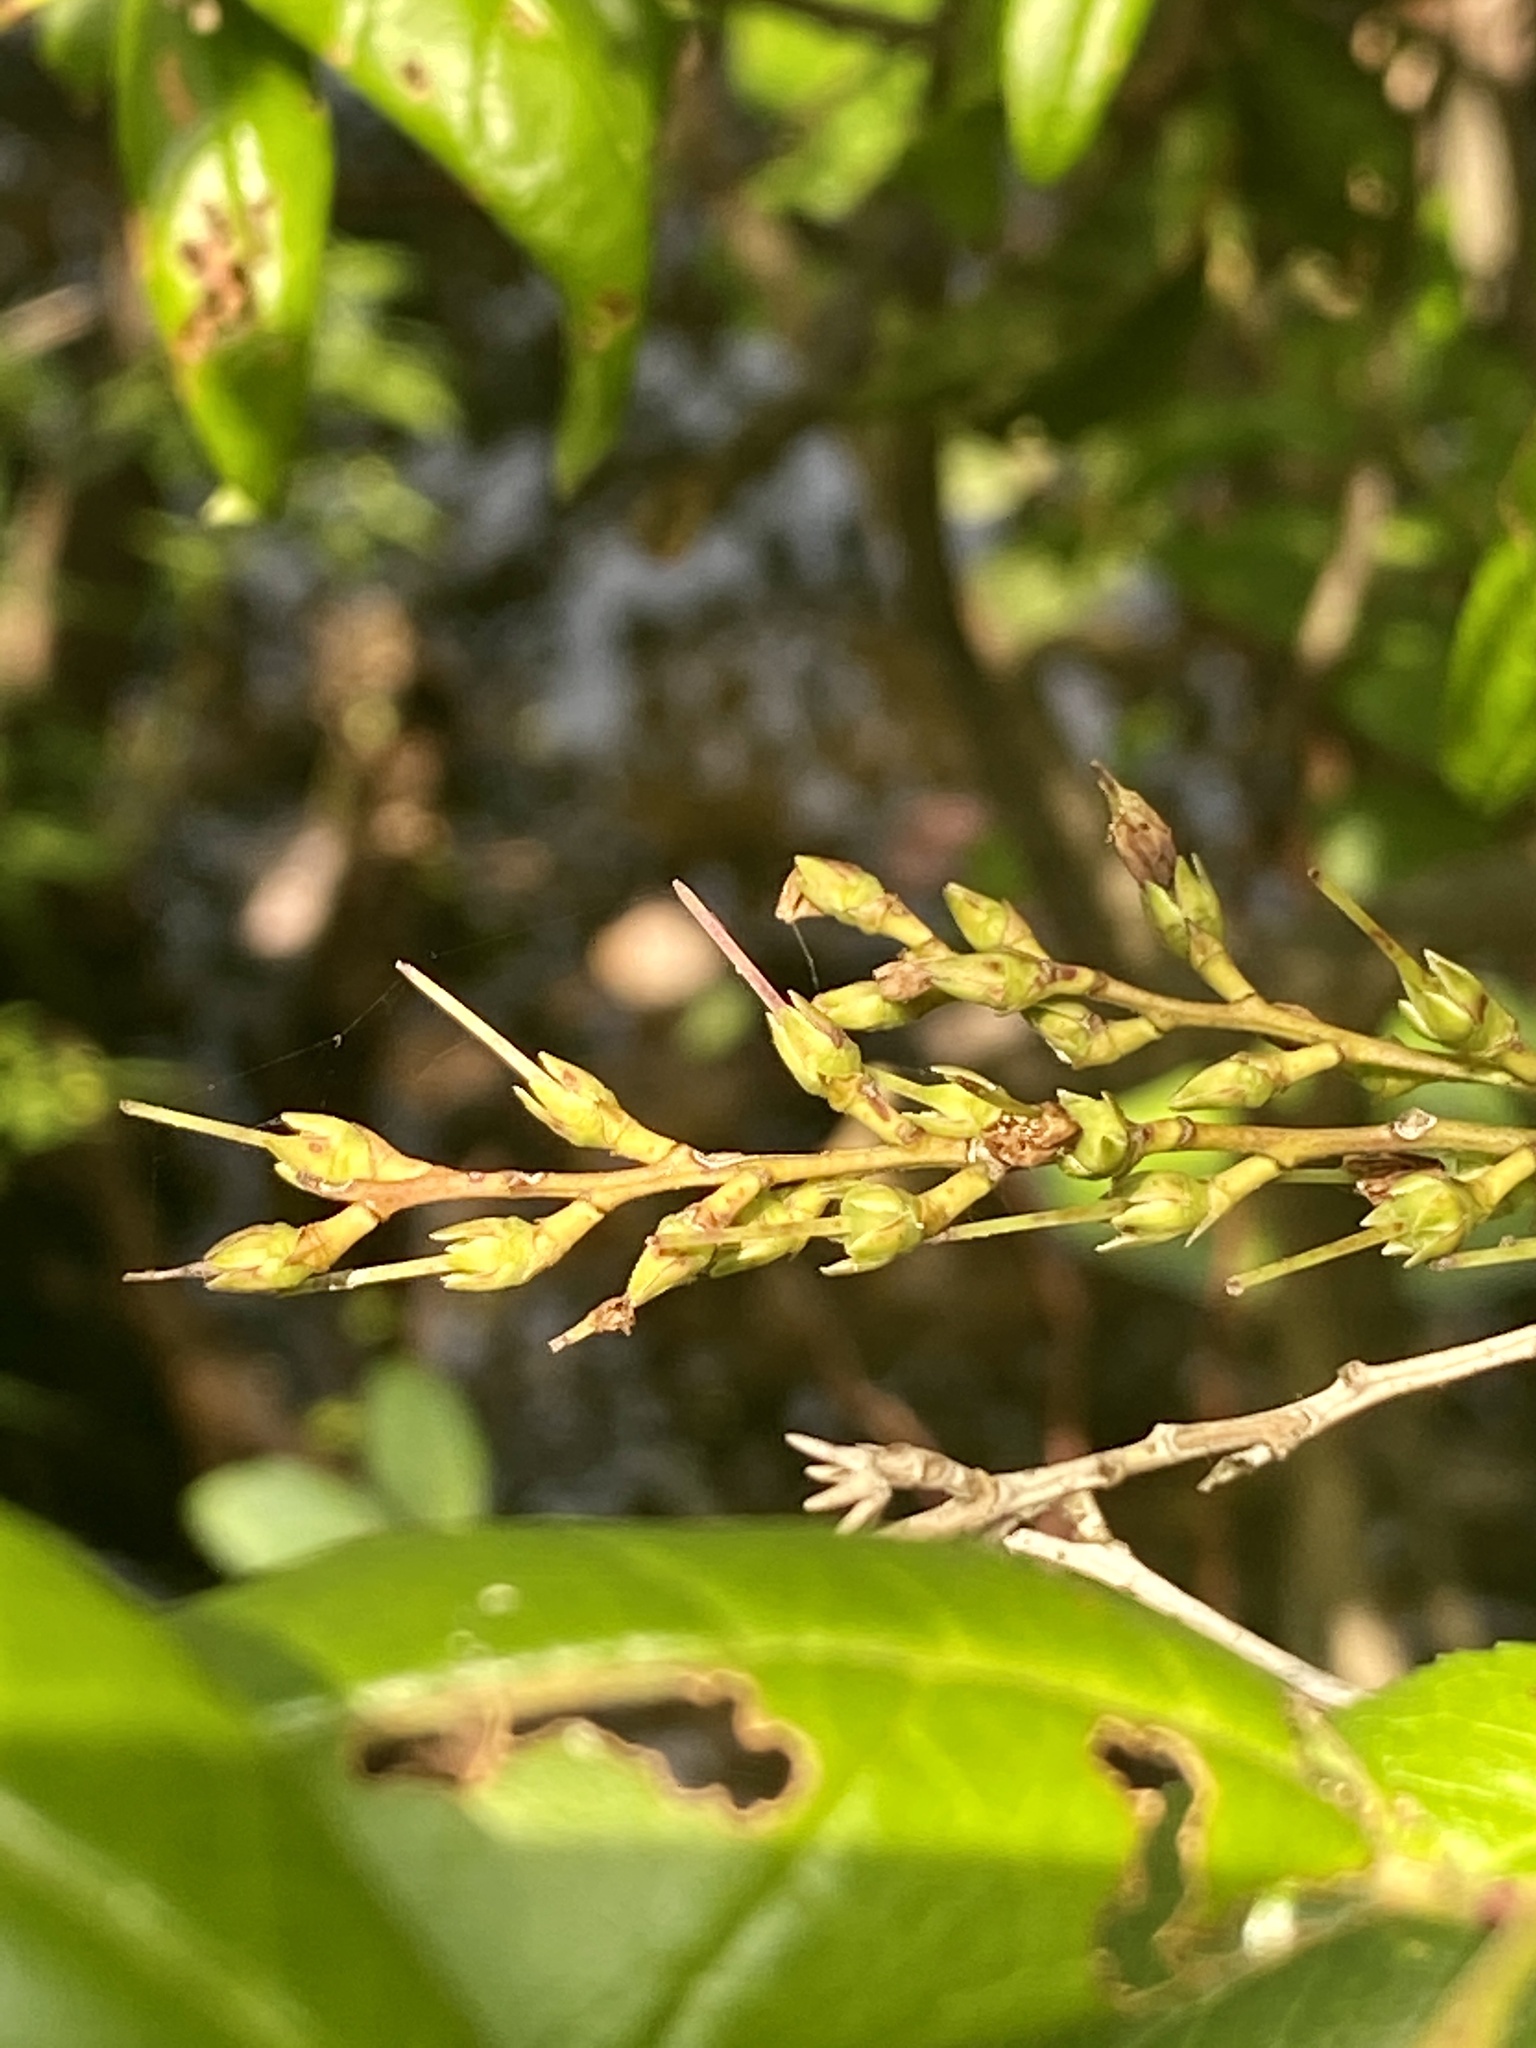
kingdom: Plantae
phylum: Tracheophyta
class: Magnoliopsida
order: Ericales
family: Ericaceae
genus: Eubotrys
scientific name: Eubotrys racemosa
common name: Fetterbush
